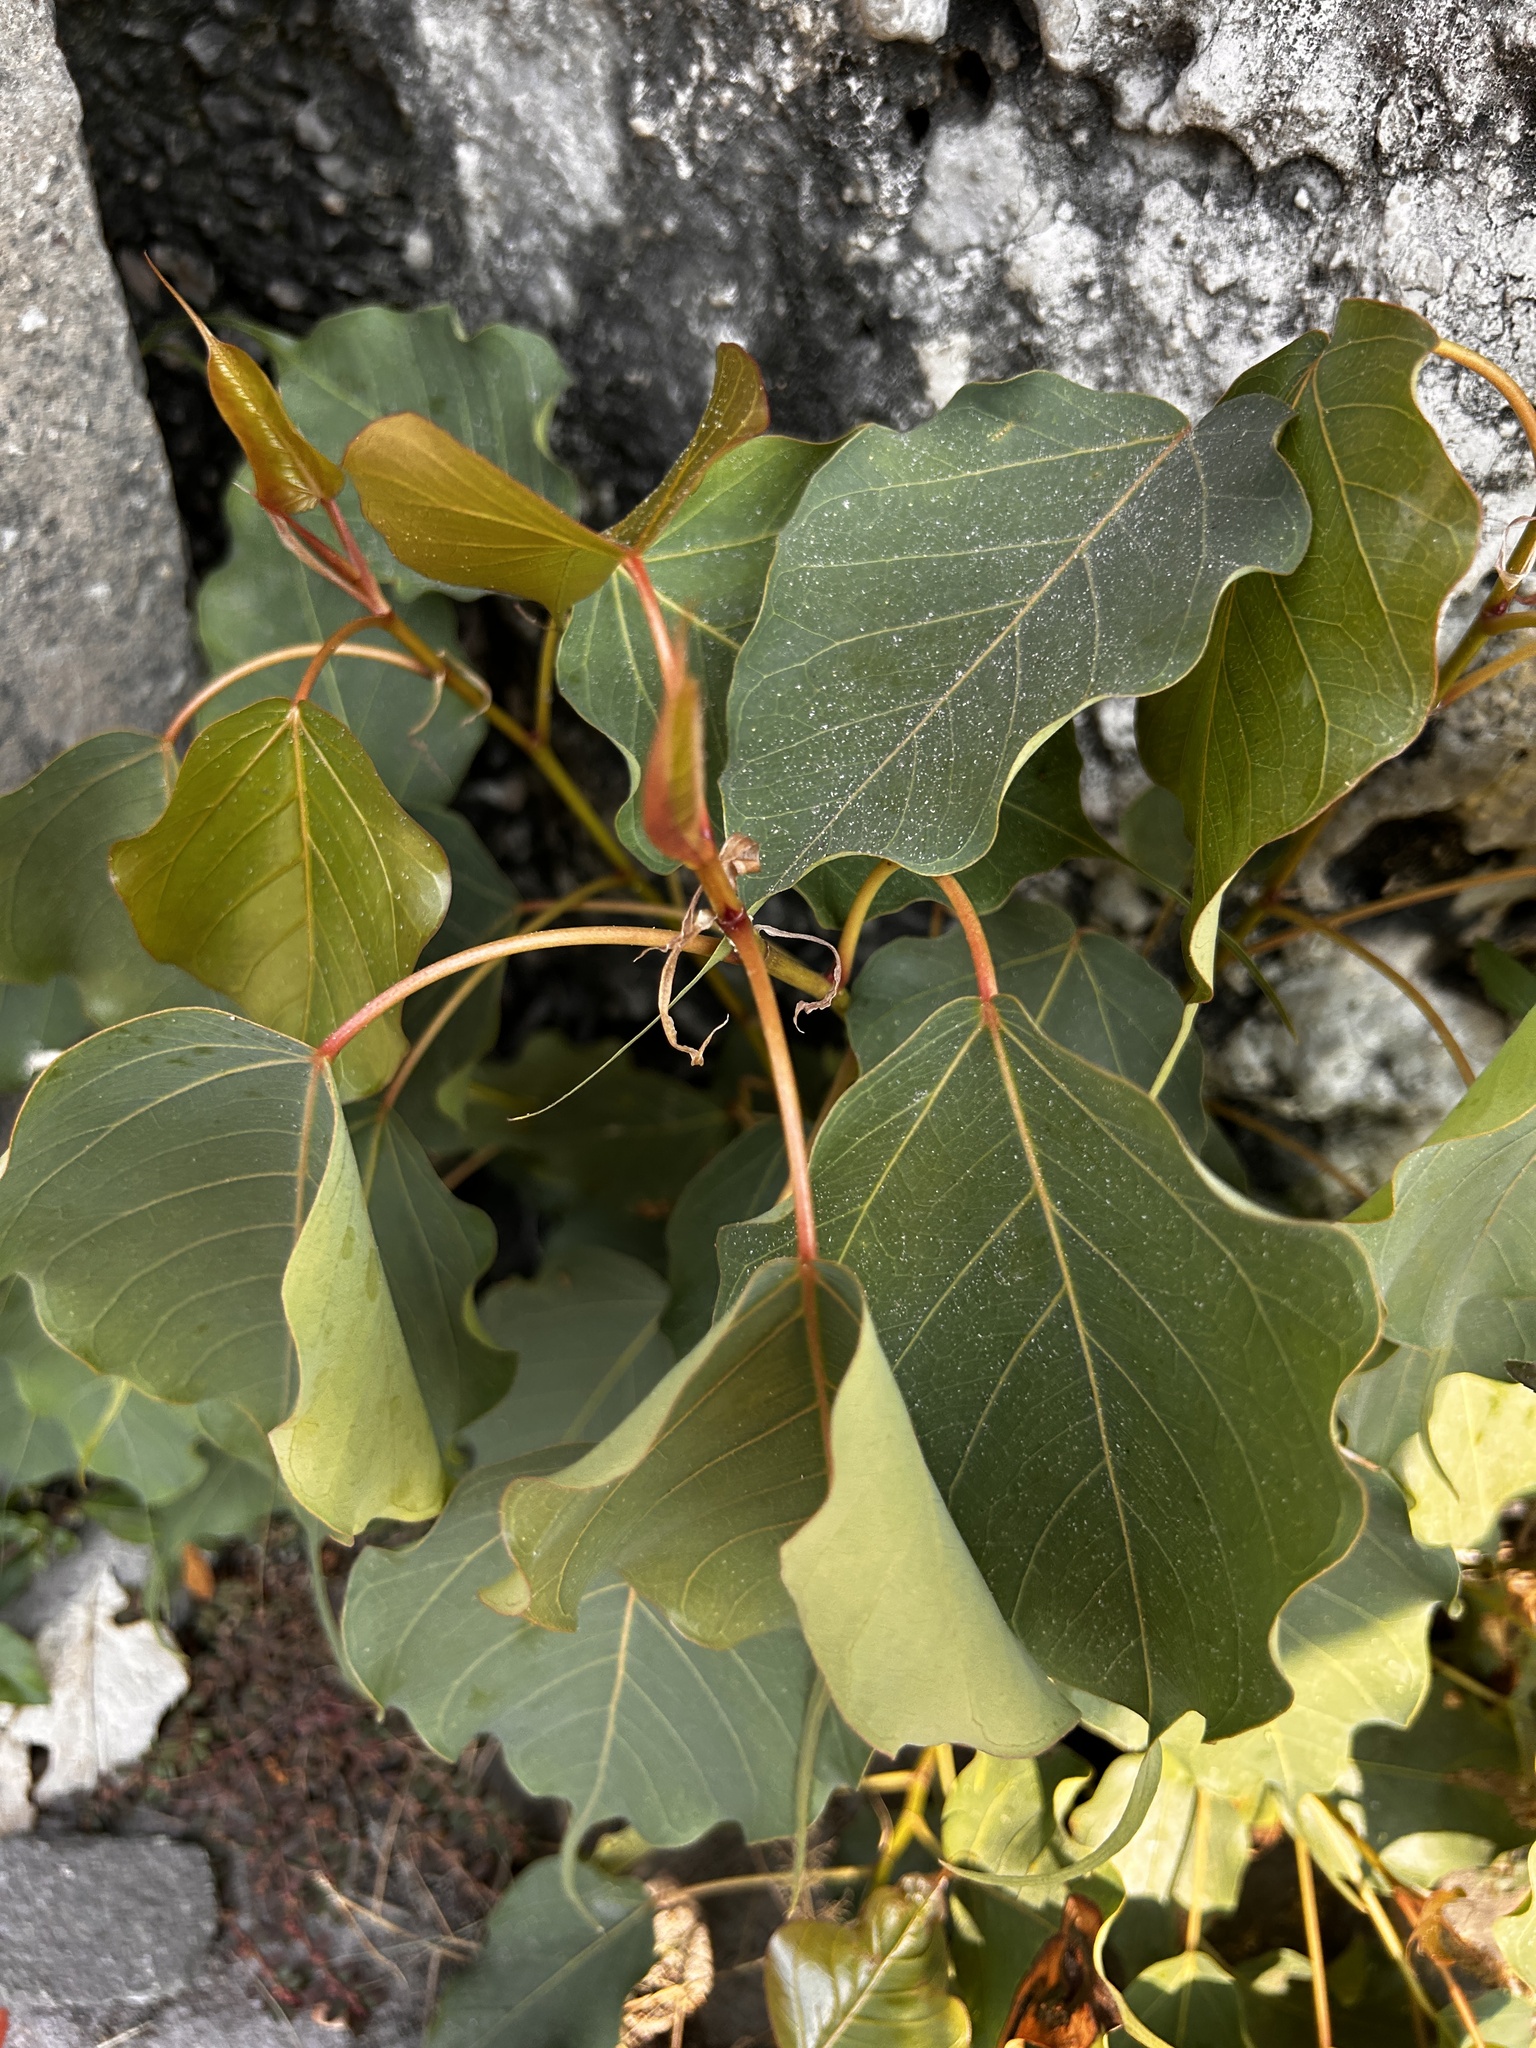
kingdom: Plantae
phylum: Tracheophyta
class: Magnoliopsida
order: Rosales
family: Moraceae
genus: Ficus
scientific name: Ficus religiosa
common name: Bodhi tree
